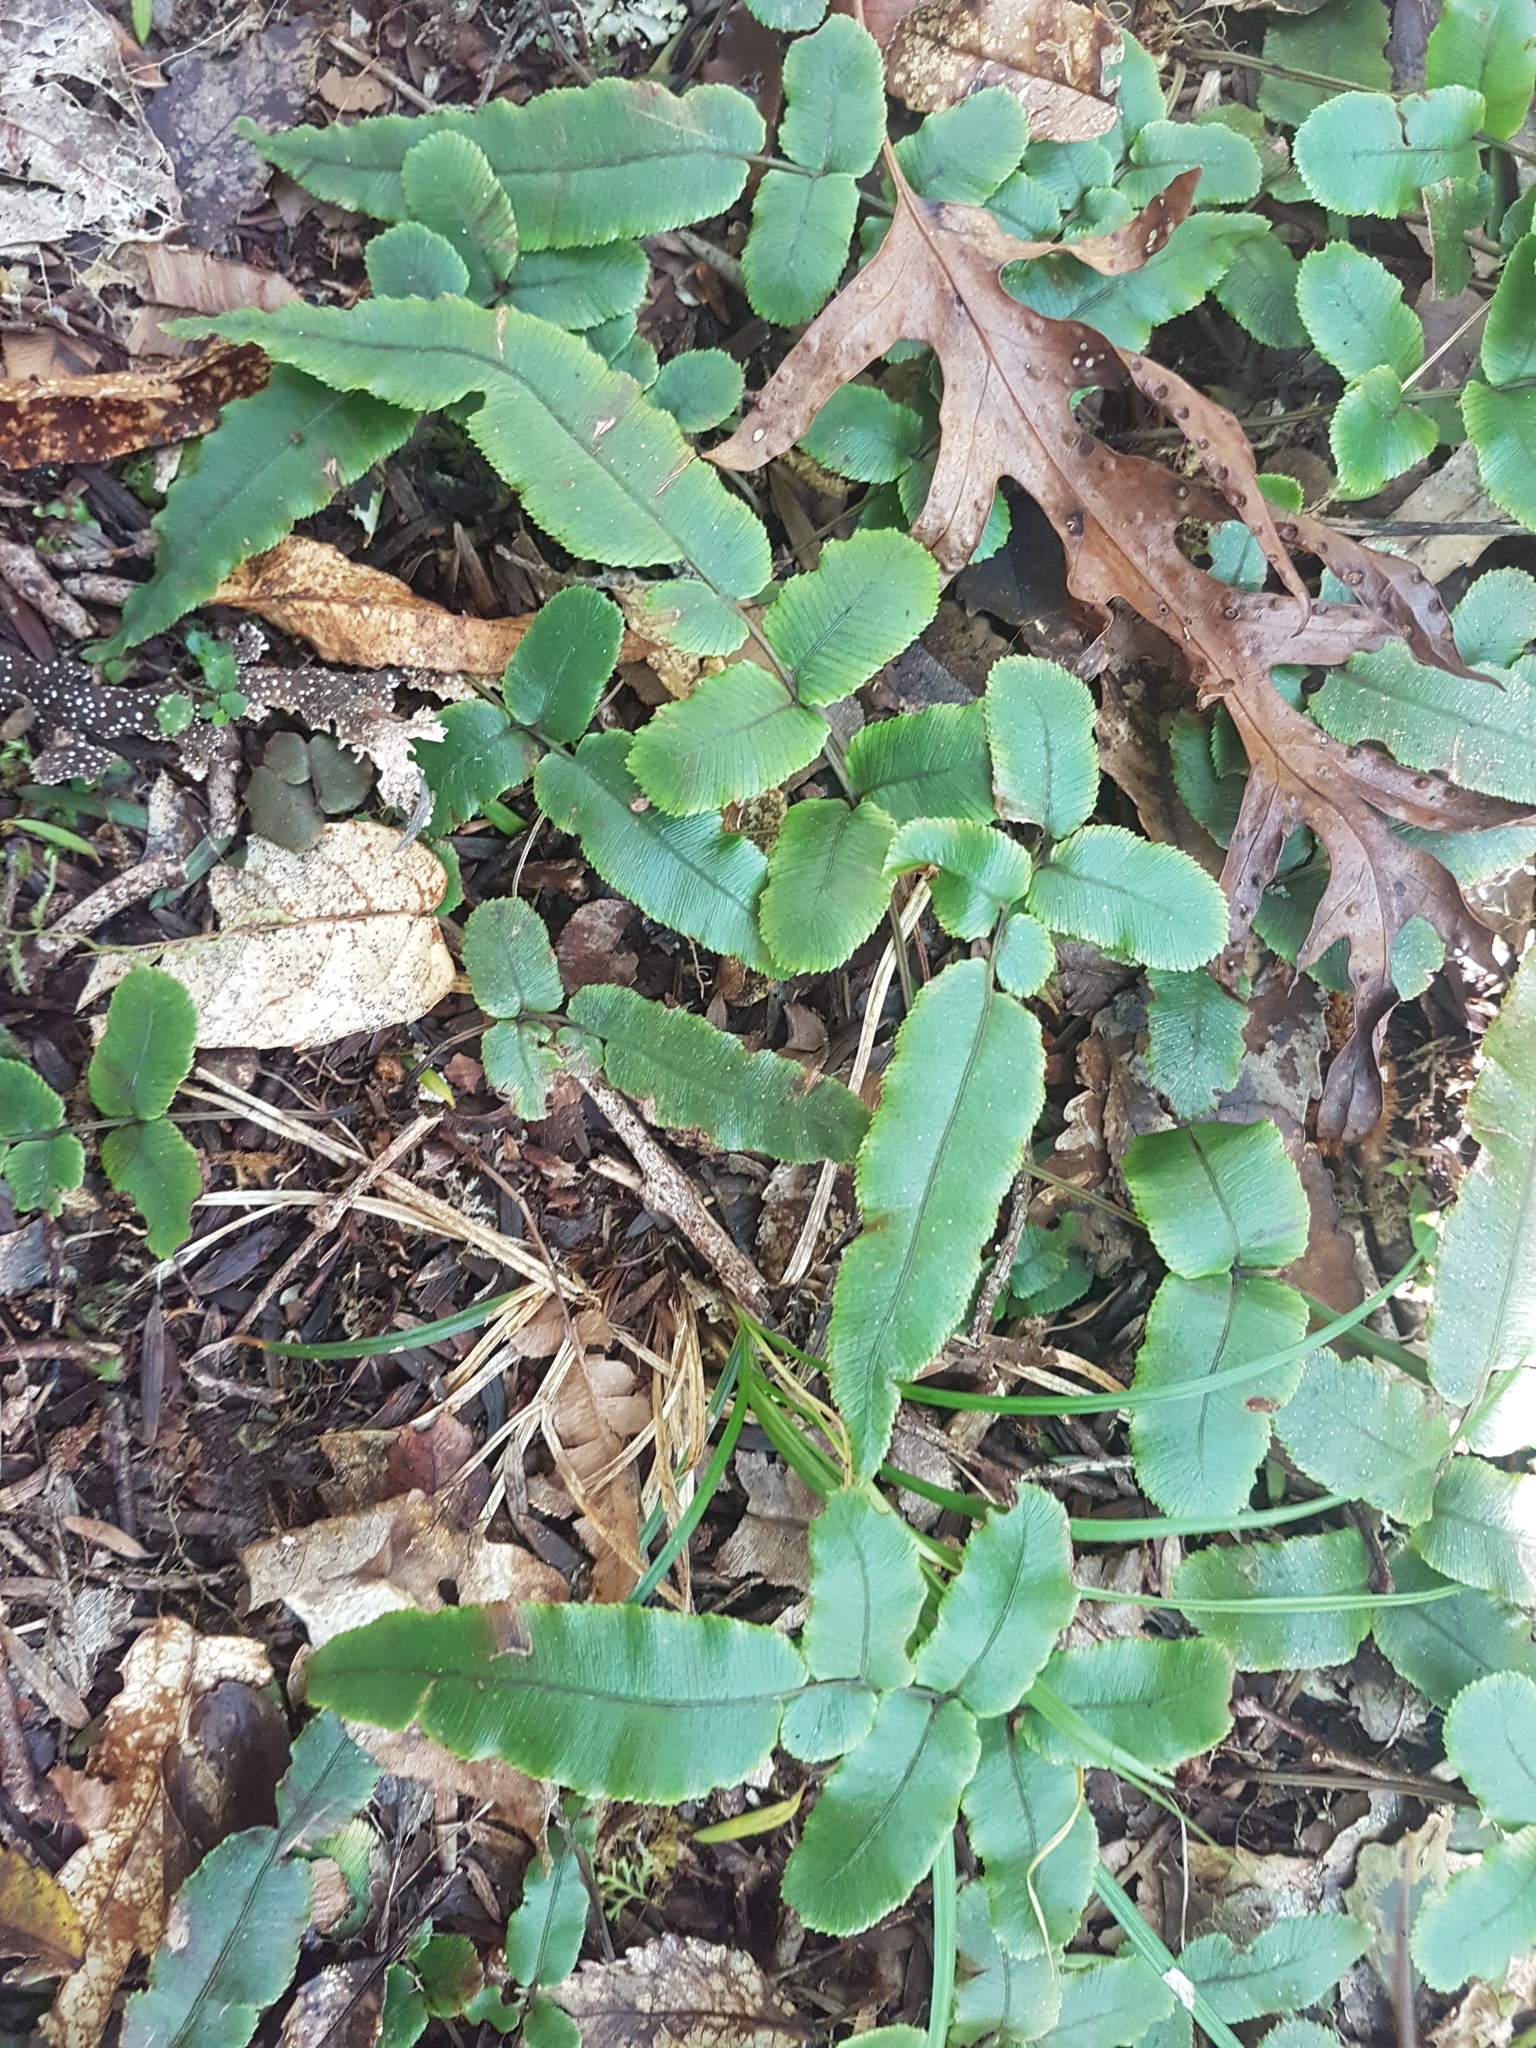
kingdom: Plantae
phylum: Tracheophyta
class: Polypodiopsida
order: Polypodiales
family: Blechnaceae
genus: Parablechnum
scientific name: Parablechnum procerum
